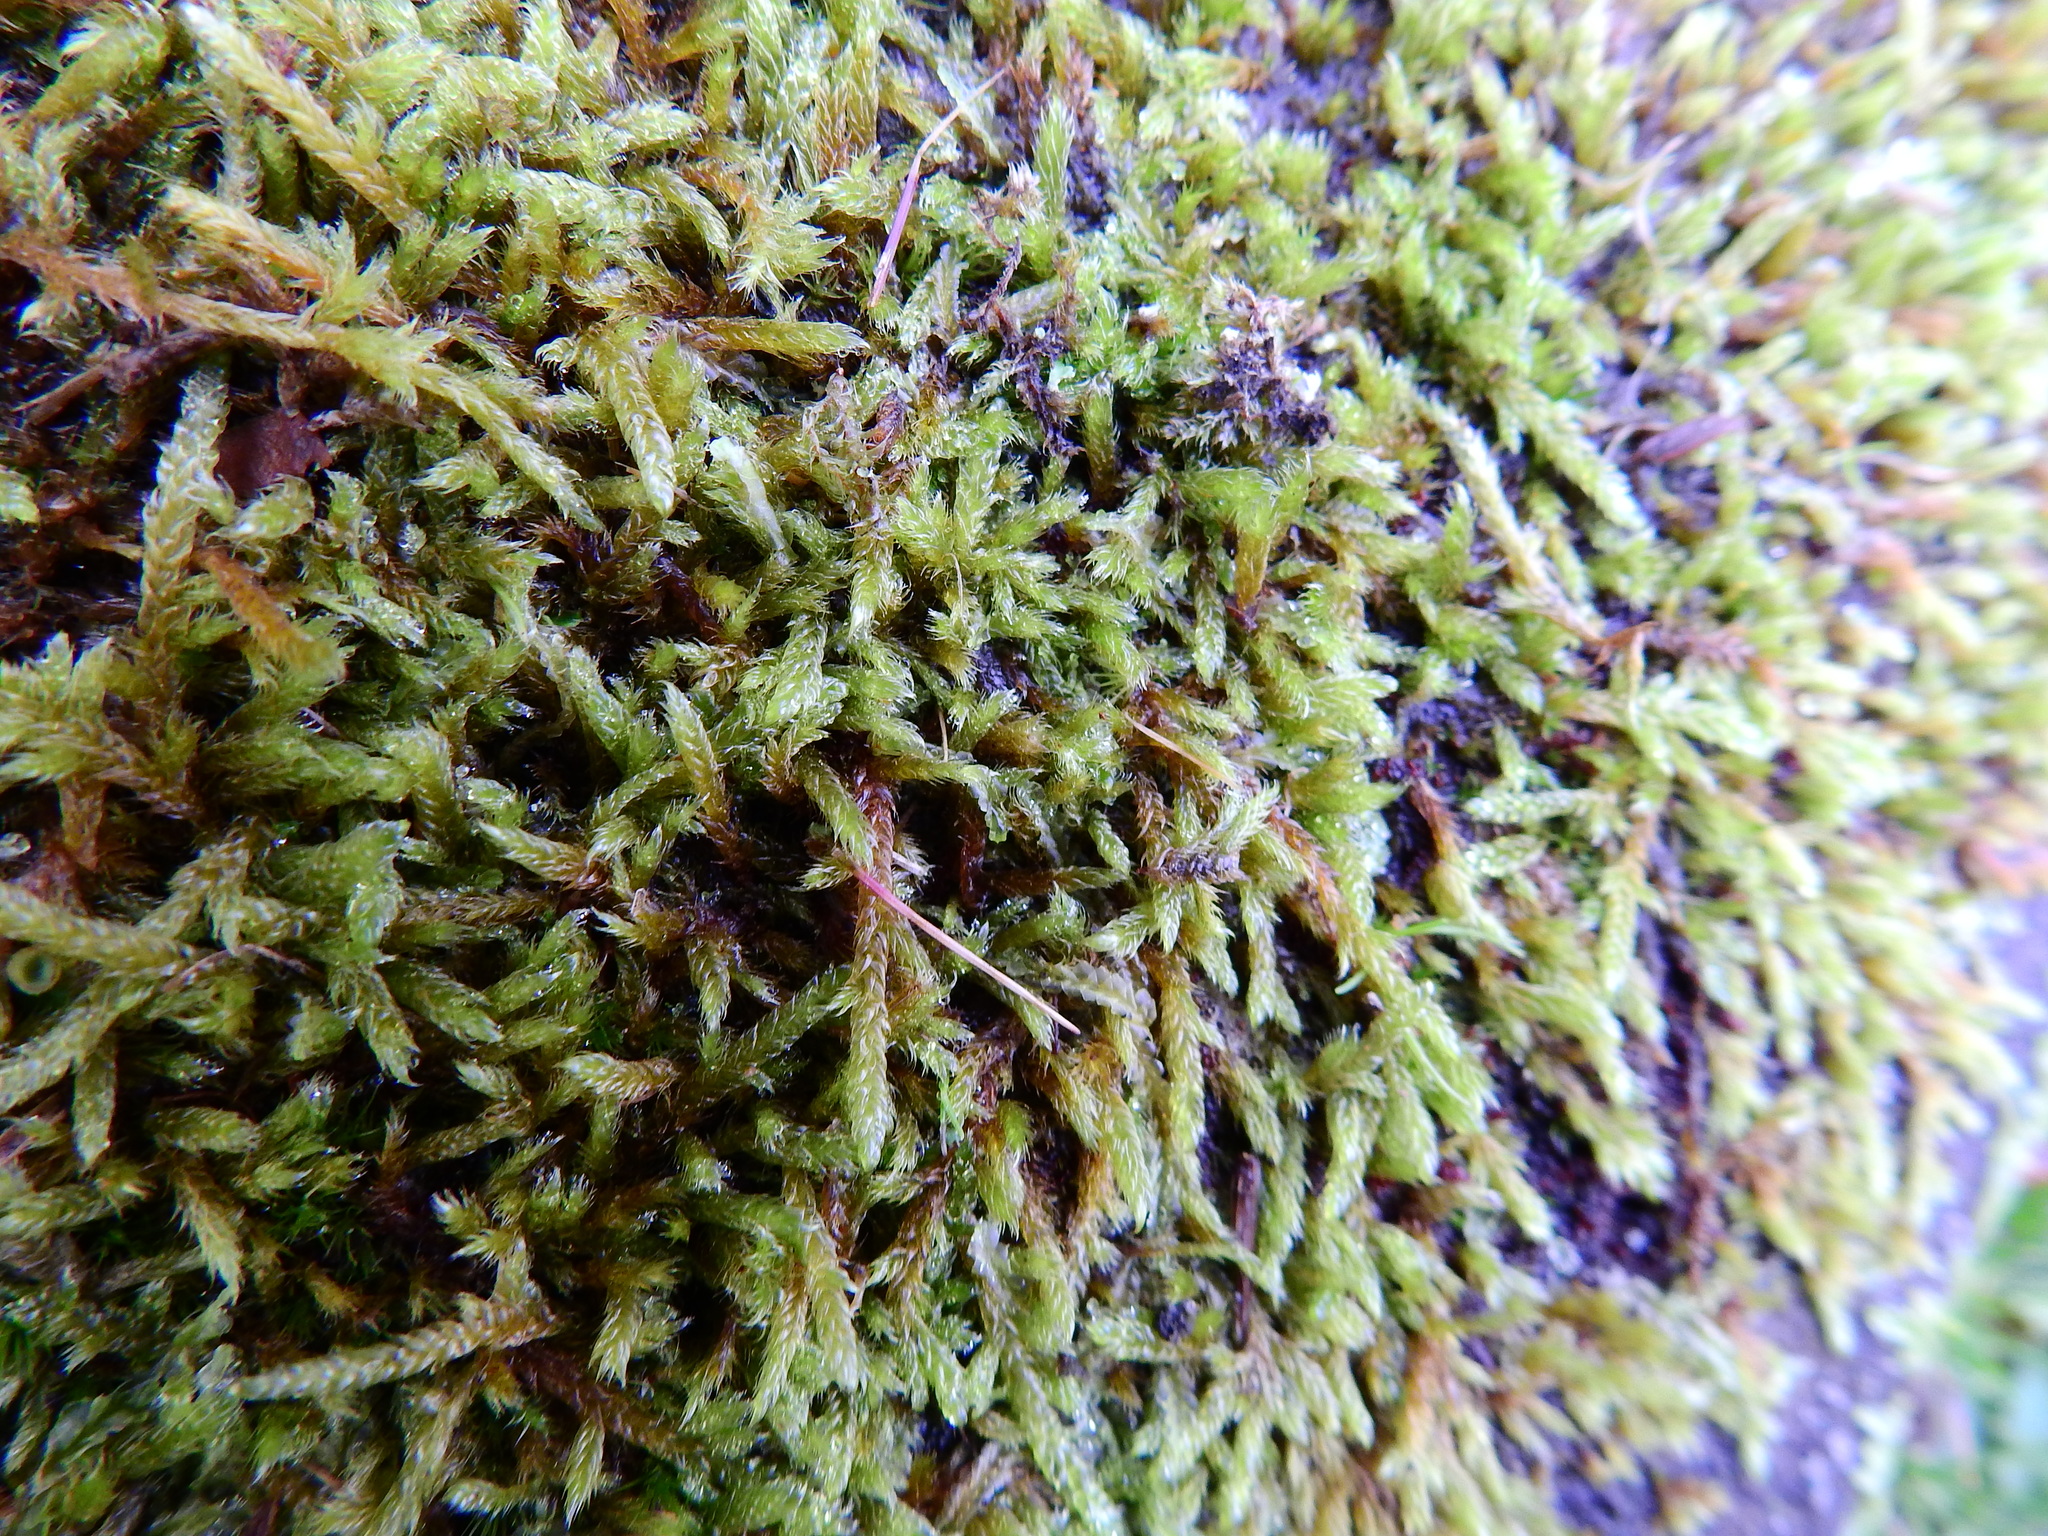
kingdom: Plantae
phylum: Bryophyta
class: Bryopsida
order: Hypnales
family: Hypnaceae
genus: Hypnum
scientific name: Hypnum cupressiforme
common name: Cypress-leaved plait-moss
